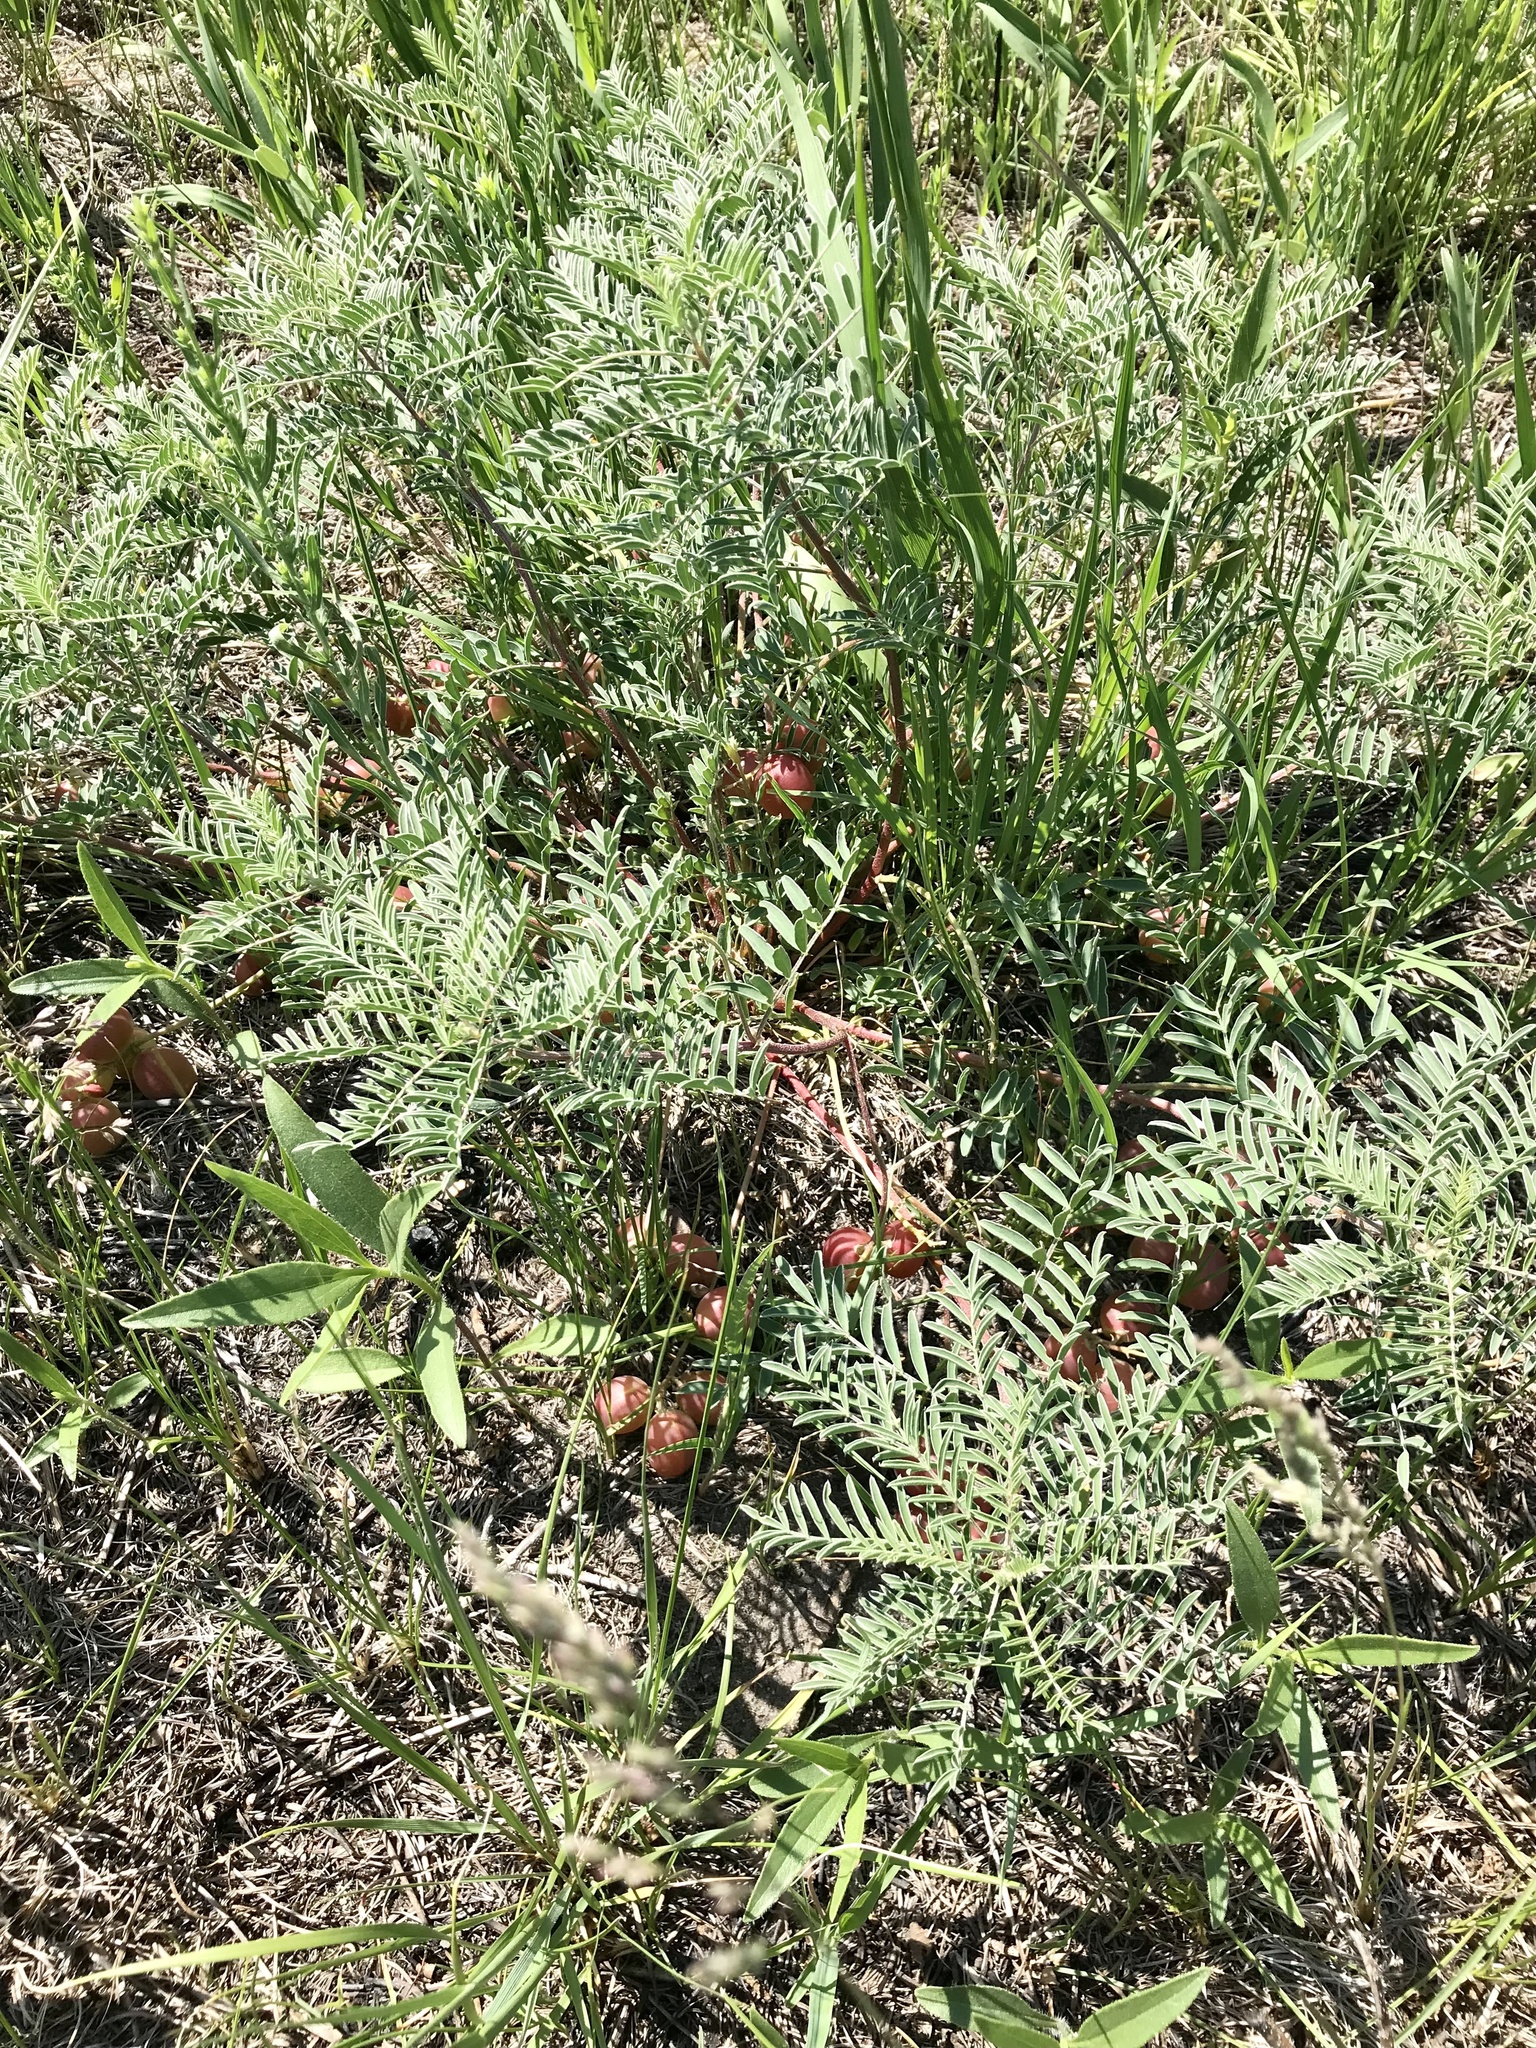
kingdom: Plantae
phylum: Tracheophyta
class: Magnoliopsida
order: Fabales
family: Fabaceae
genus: Astragalus
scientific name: Astragalus crassicarpus
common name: Ground-plum milk-vetch
